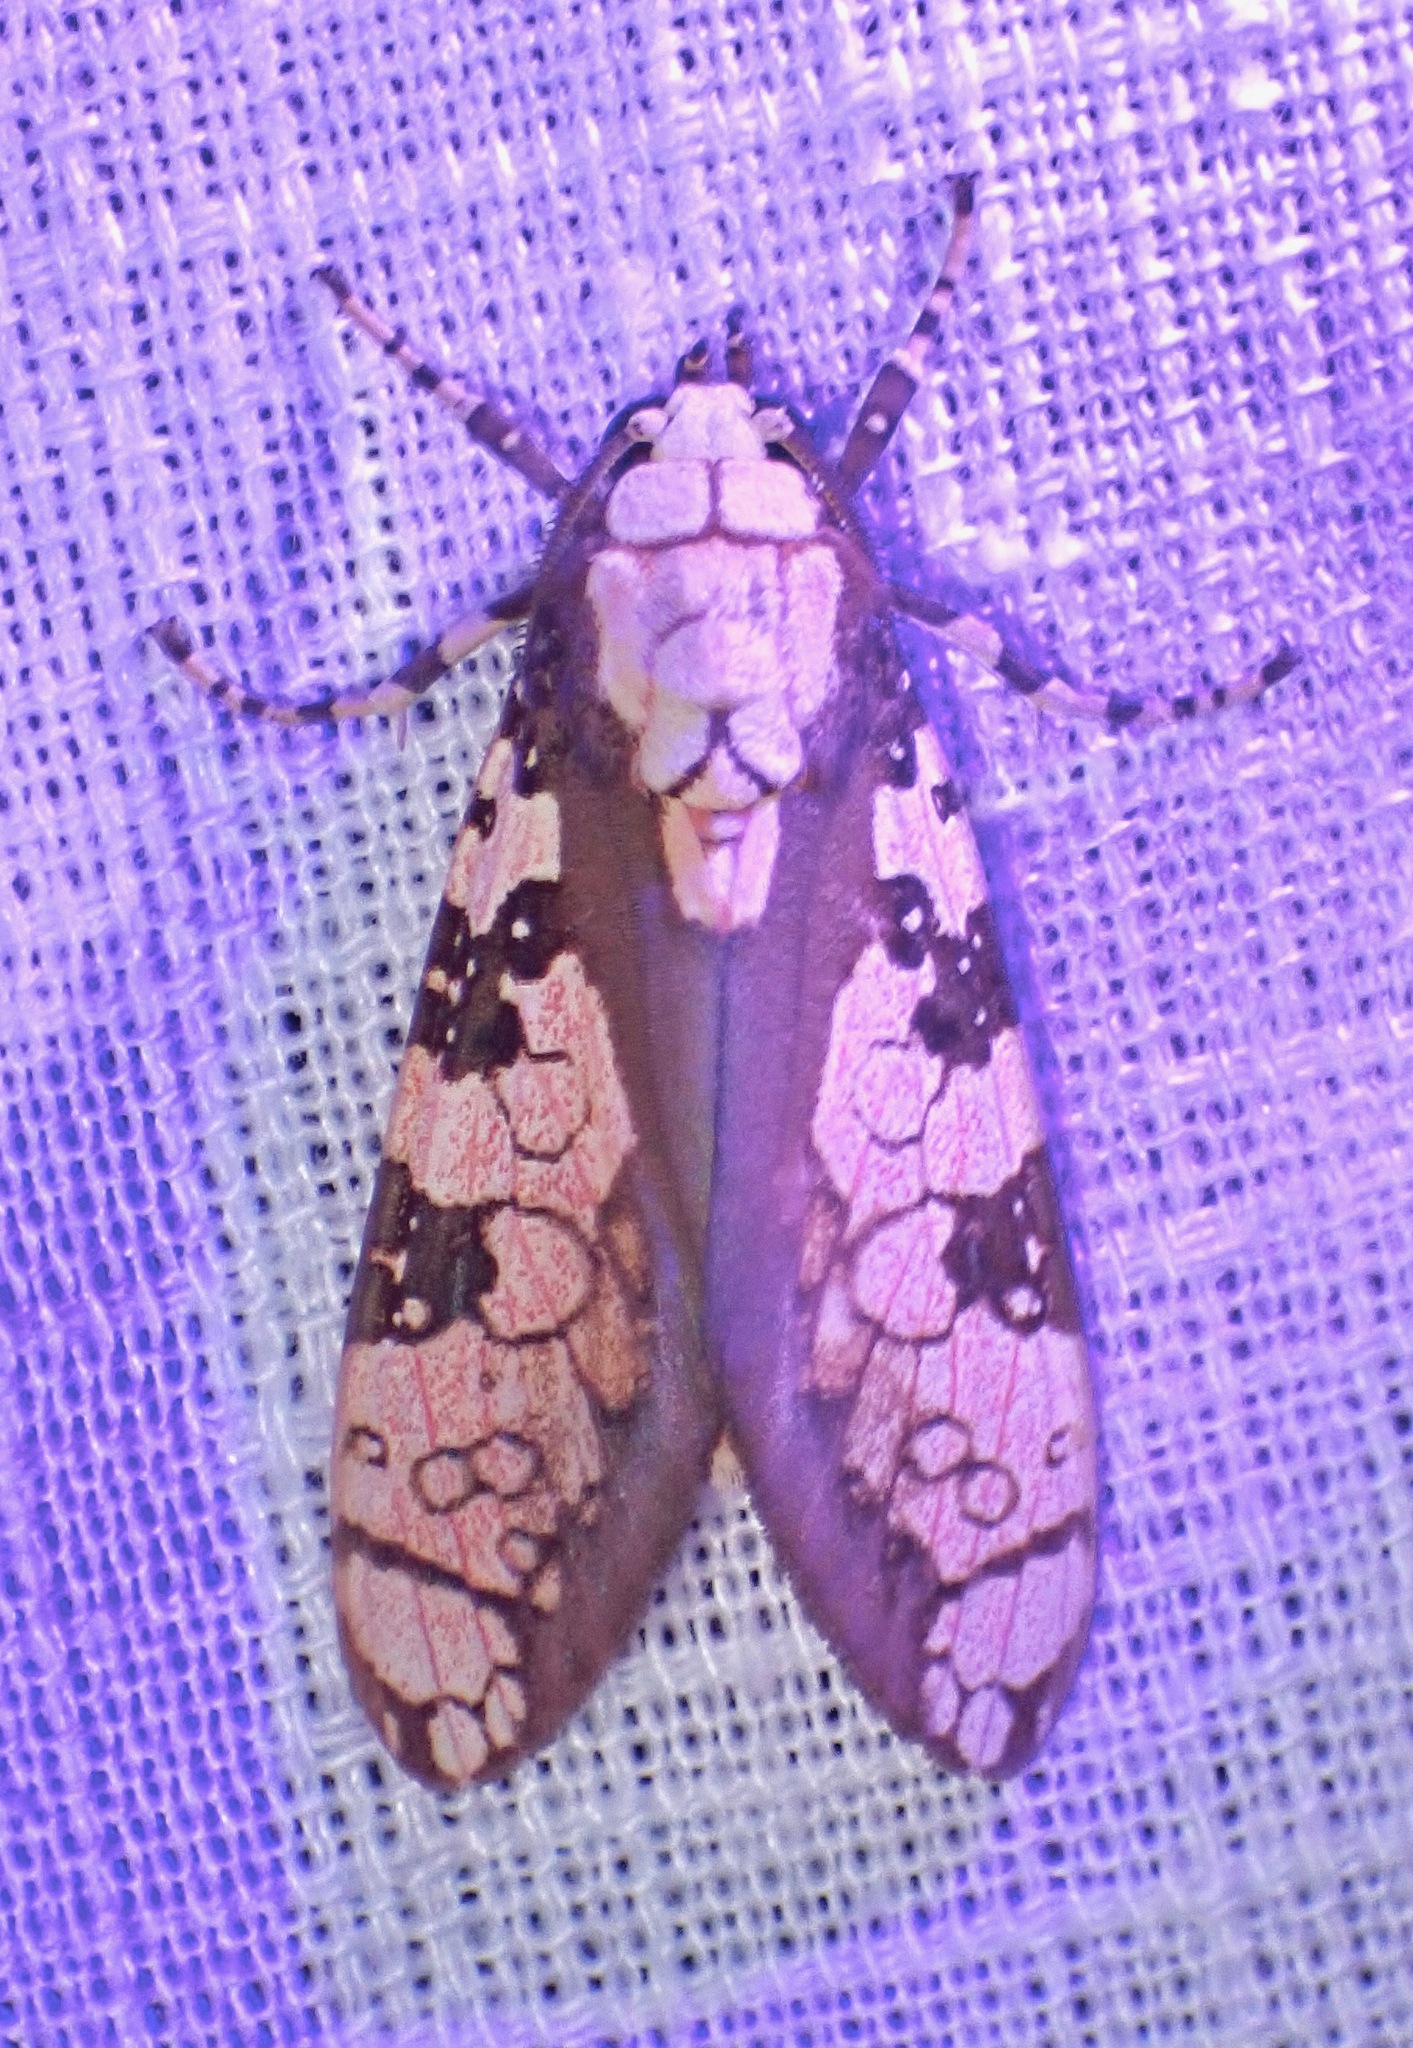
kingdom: Animalia
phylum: Arthropoda
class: Insecta
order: Lepidoptera
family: Erebidae
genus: Cresera
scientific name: Cresera ilioides
